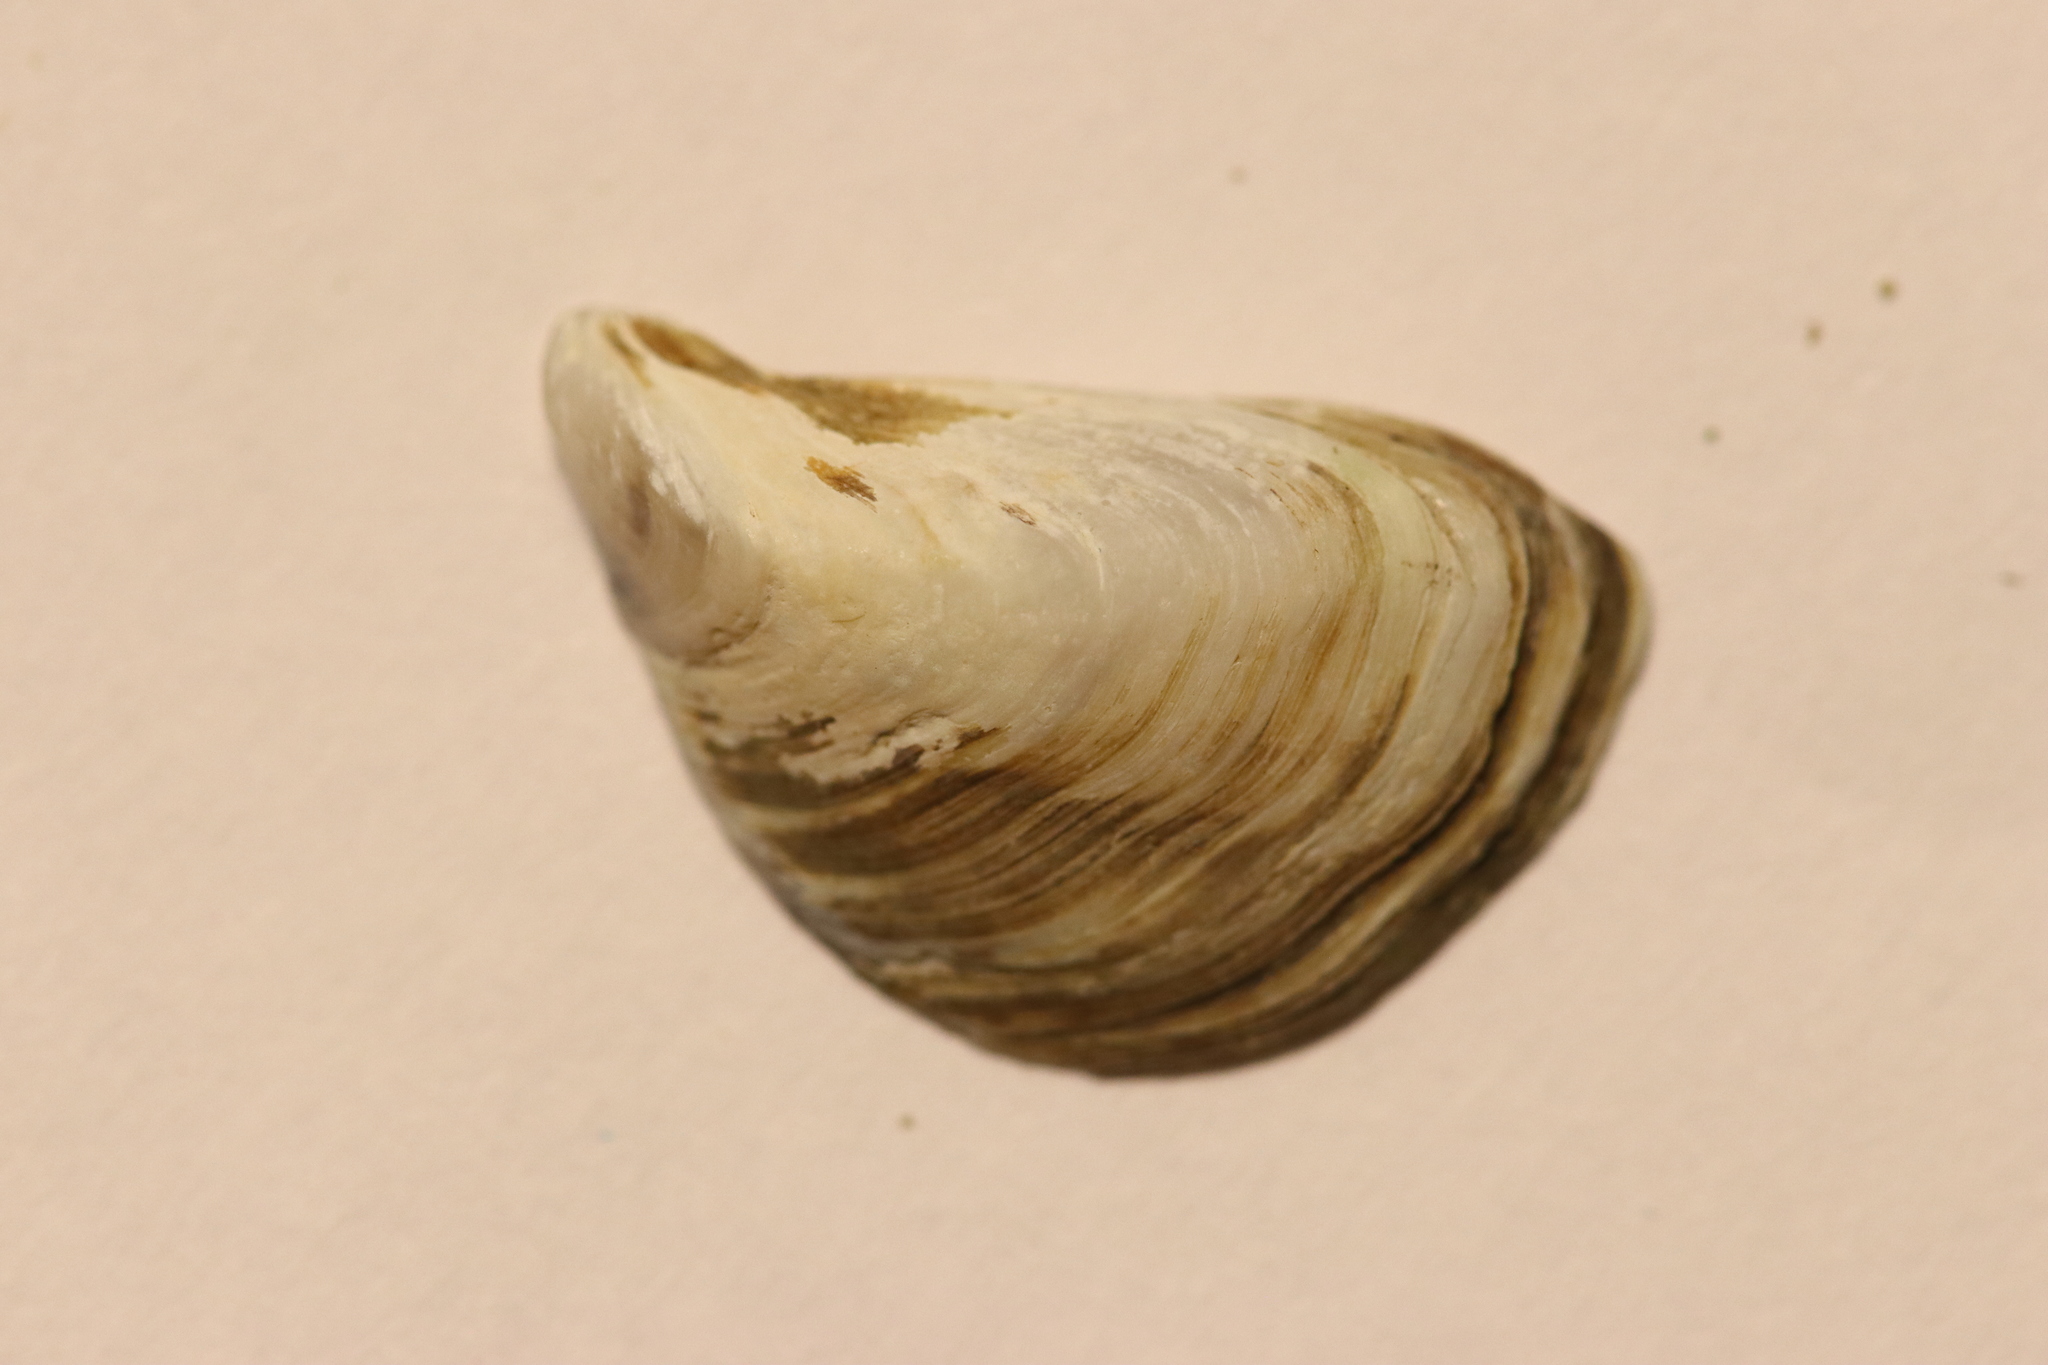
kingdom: Animalia
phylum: Mollusca
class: Bivalvia
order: Myida
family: Dreissenidae
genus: Dreissena
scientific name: Dreissena bugensis
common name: Quagga mussel
